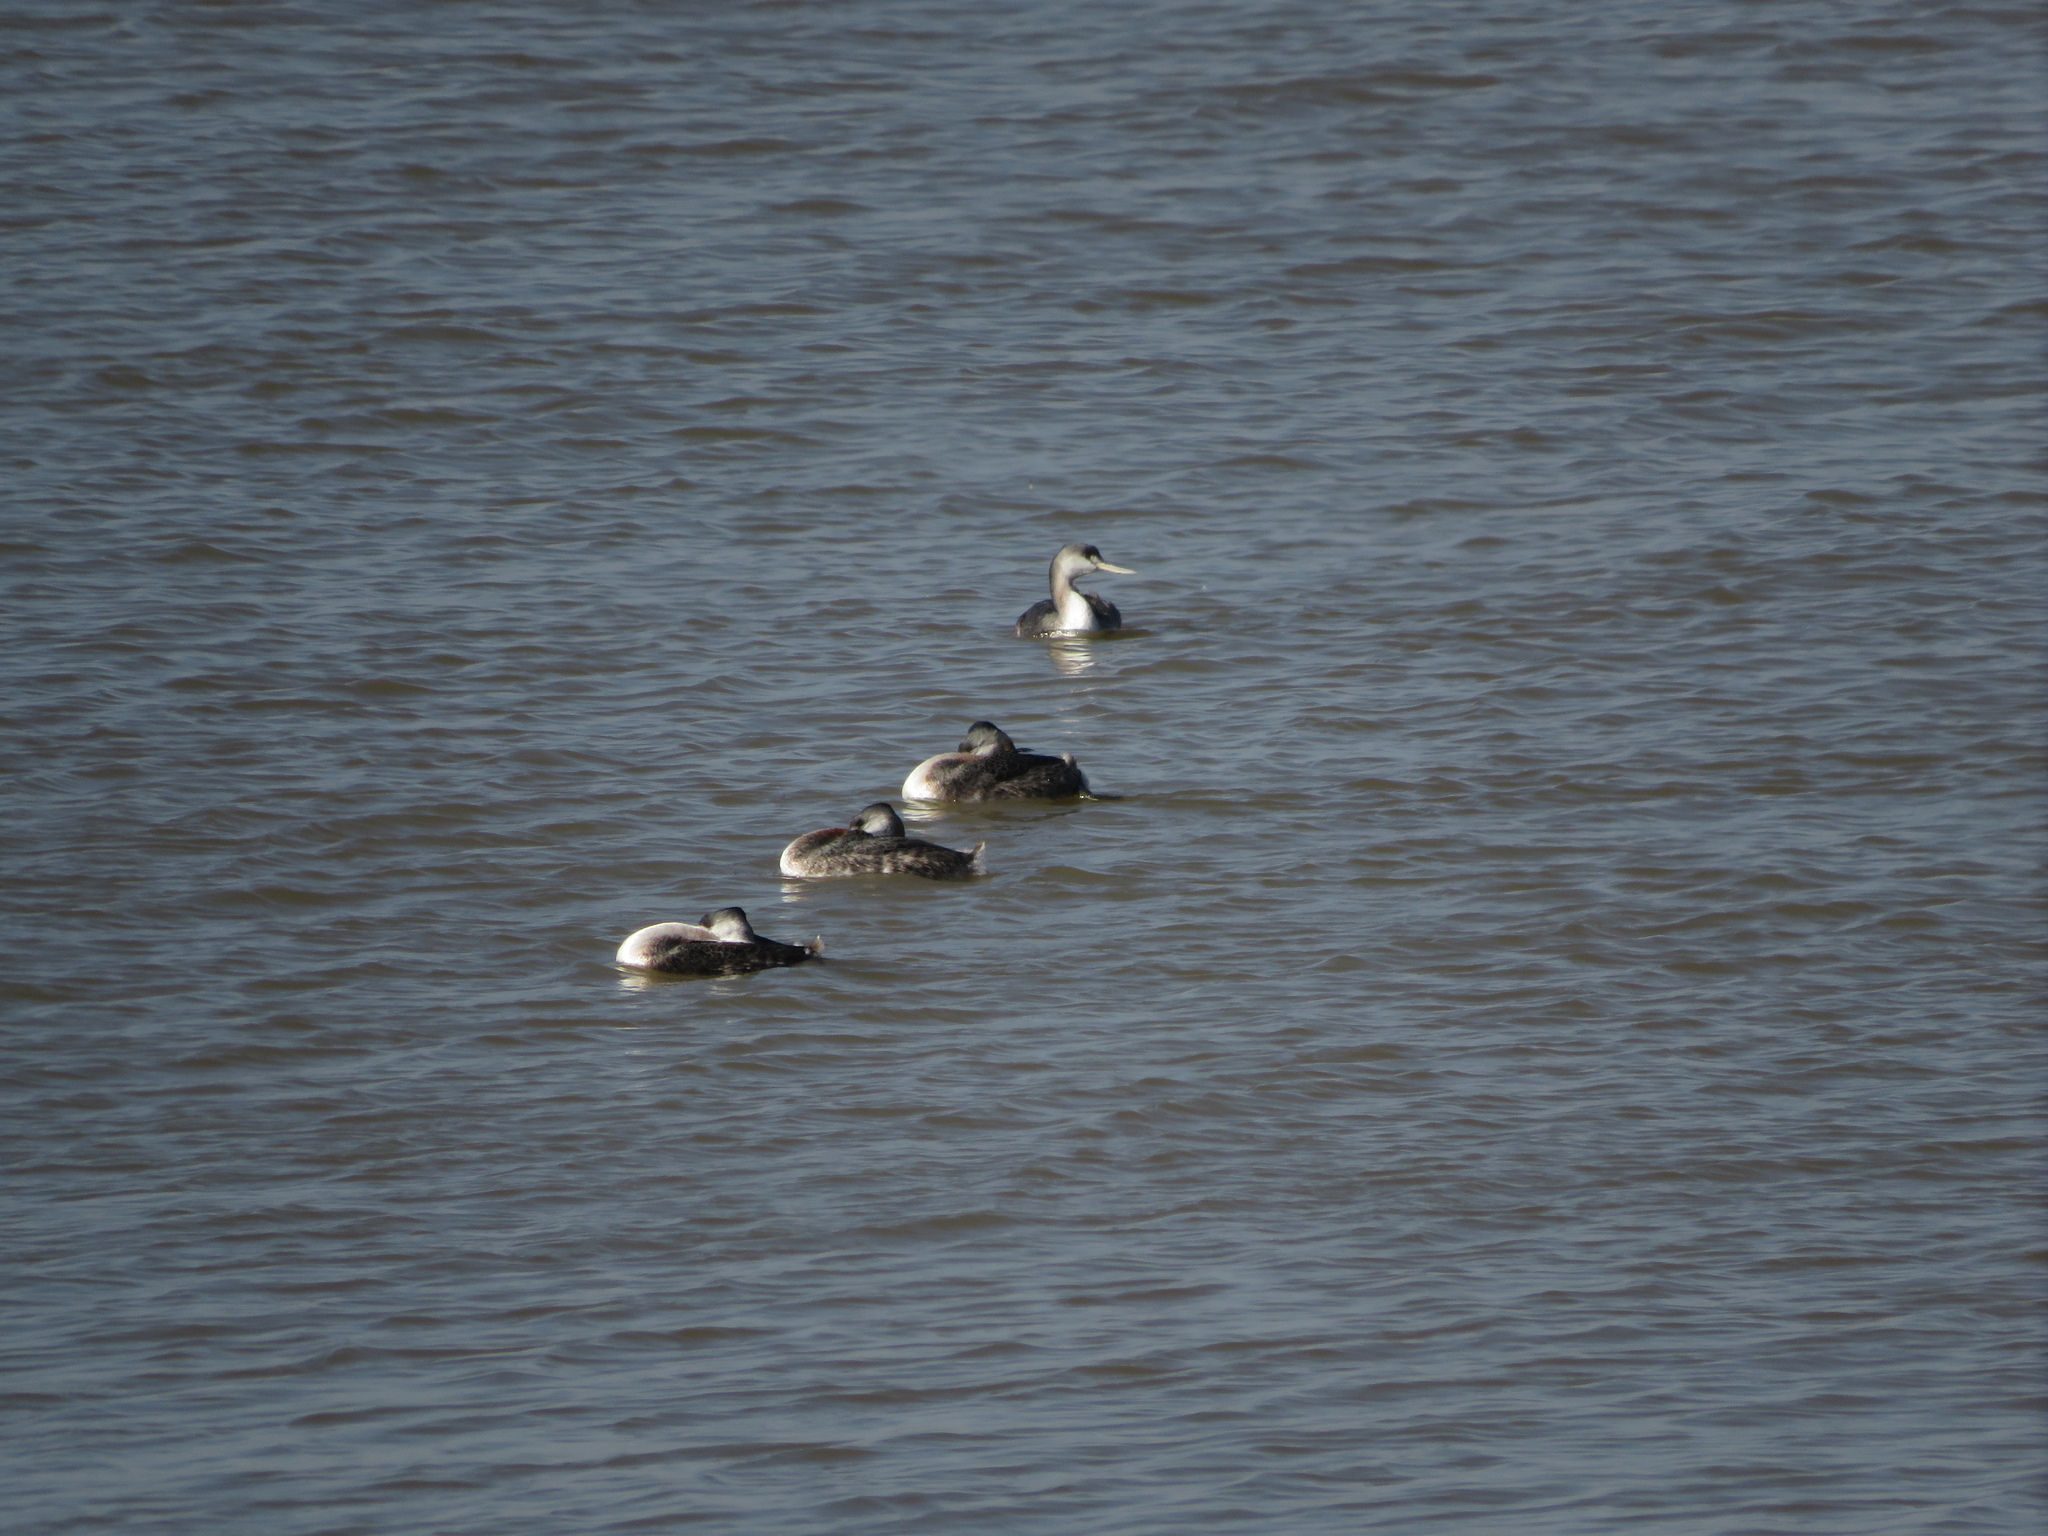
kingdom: Animalia
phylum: Chordata
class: Aves
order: Podicipediformes
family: Podicipedidae
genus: Podiceps
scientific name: Podiceps major
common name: Great grebe
